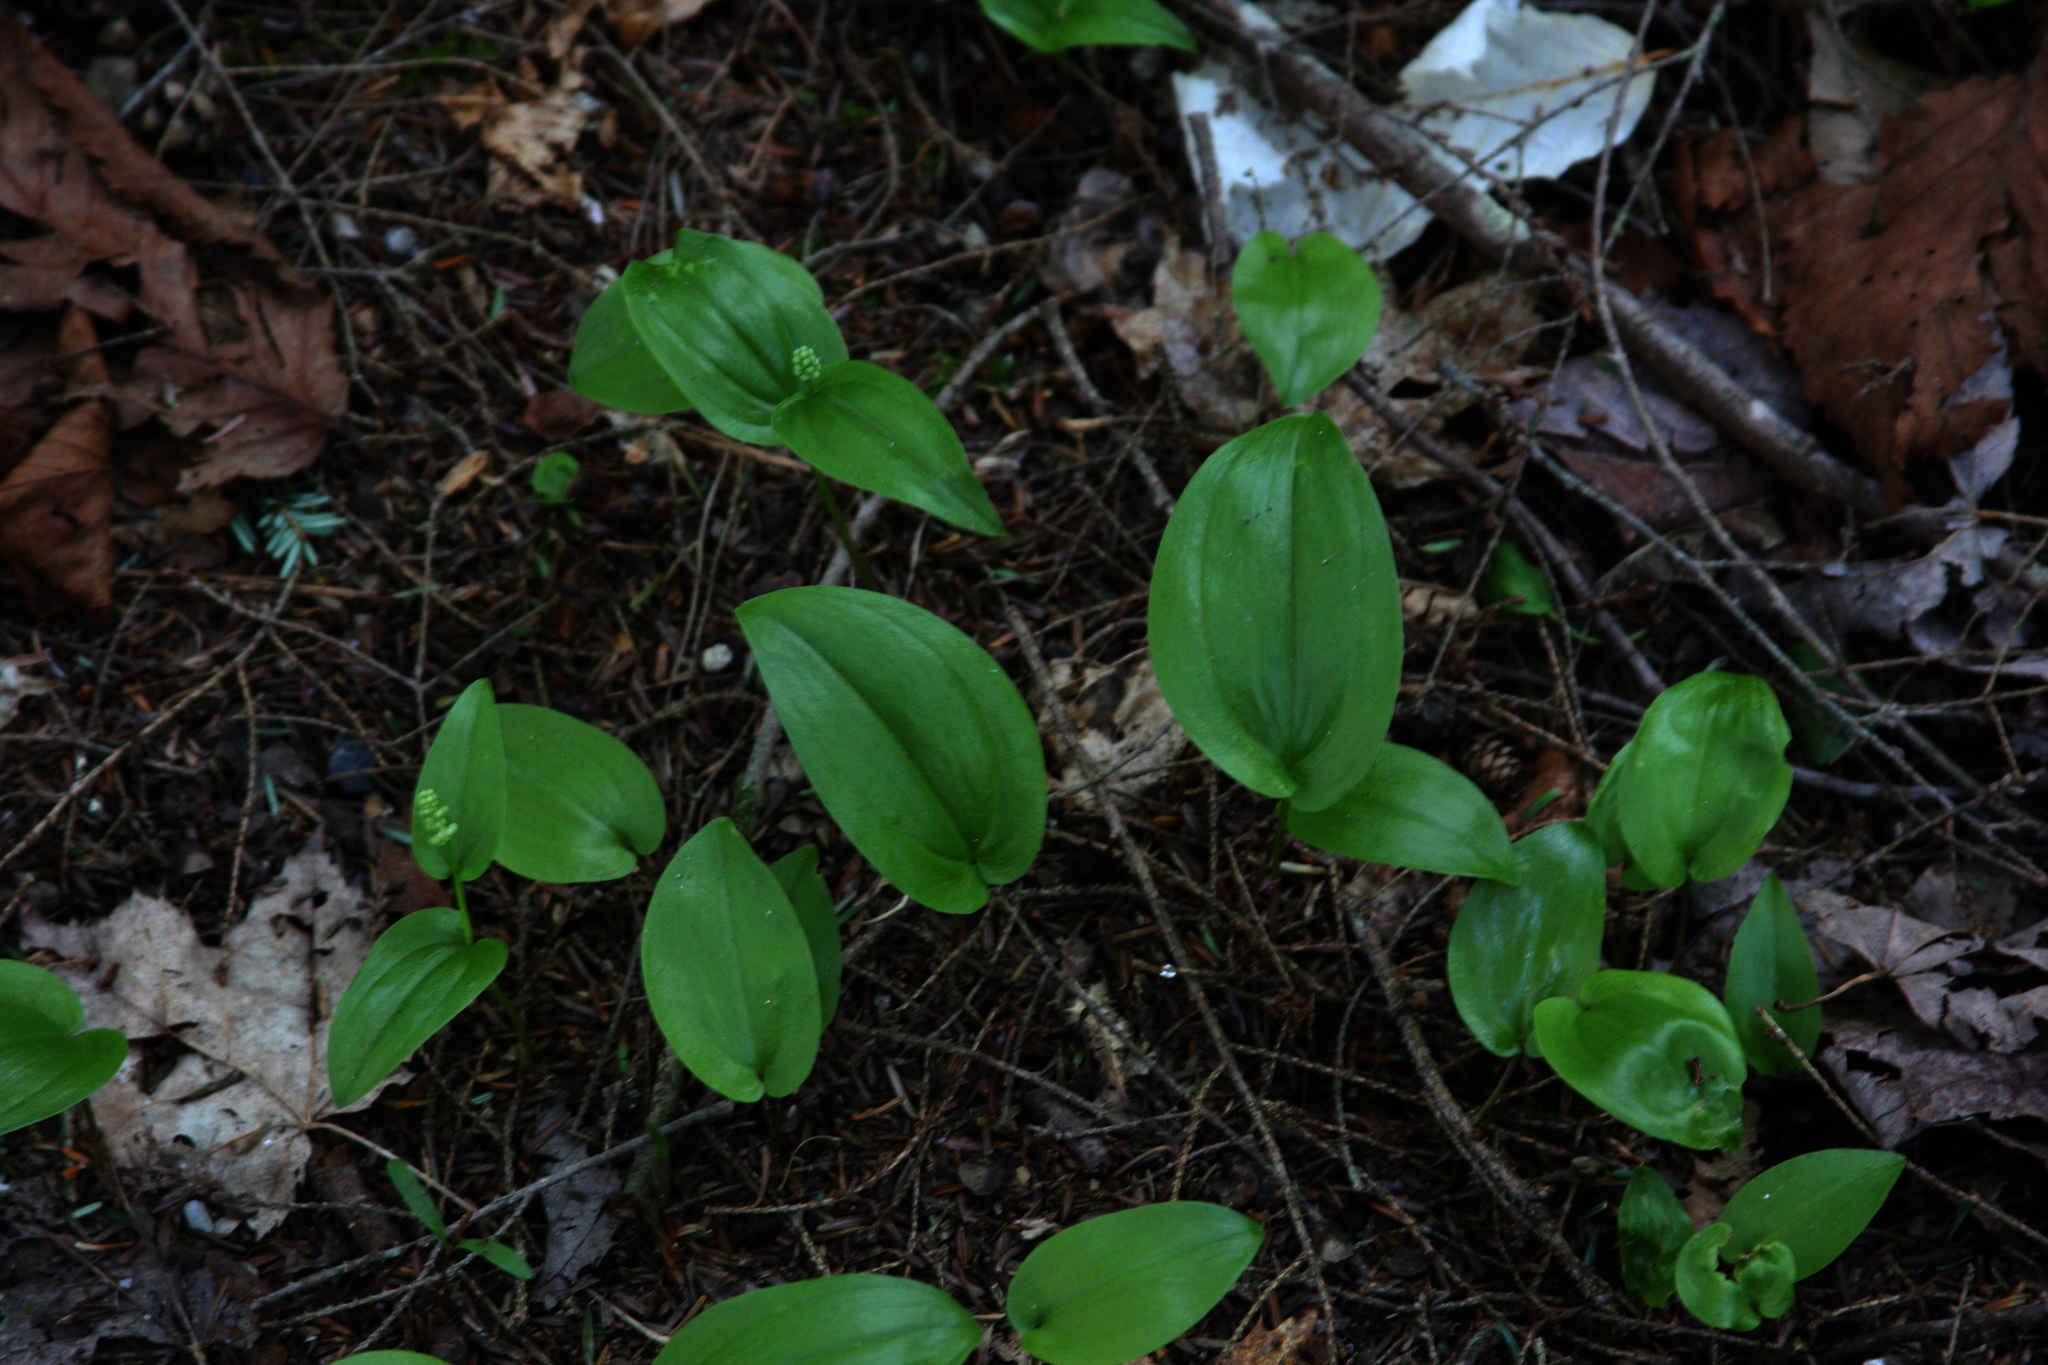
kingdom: Plantae
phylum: Tracheophyta
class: Liliopsida
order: Asparagales
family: Asparagaceae
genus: Maianthemum
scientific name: Maianthemum canadense
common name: False lily-of-the-valley
